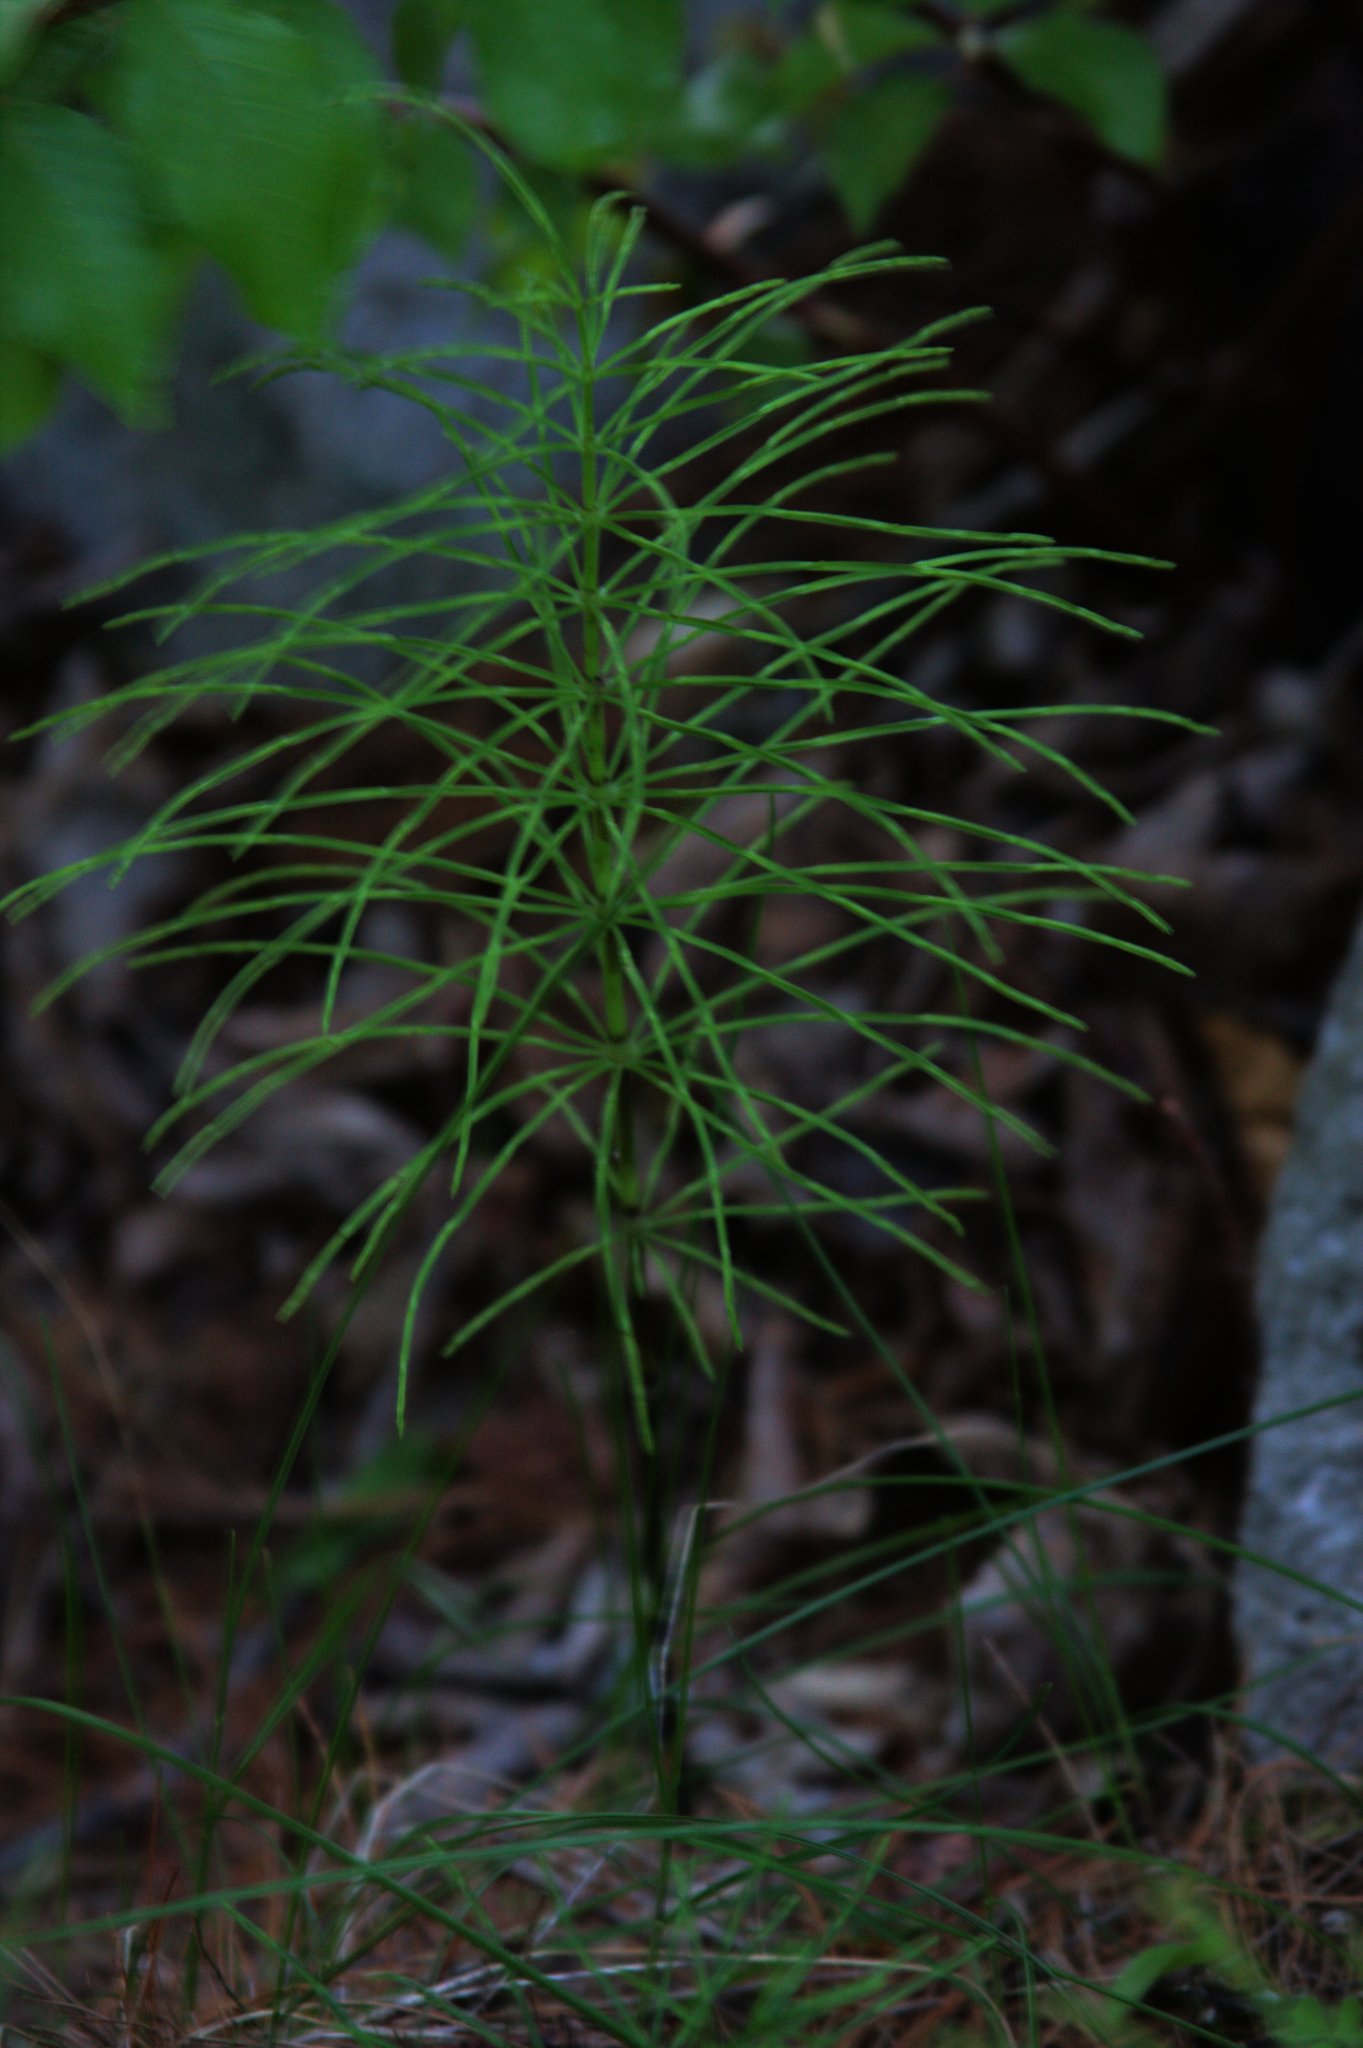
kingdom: Plantae
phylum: Tracheophyta
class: Polypodiopsida
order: Equisetales
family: Equisetaceae
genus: Equisetum
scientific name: Equisetum arvense
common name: Field horsetail
